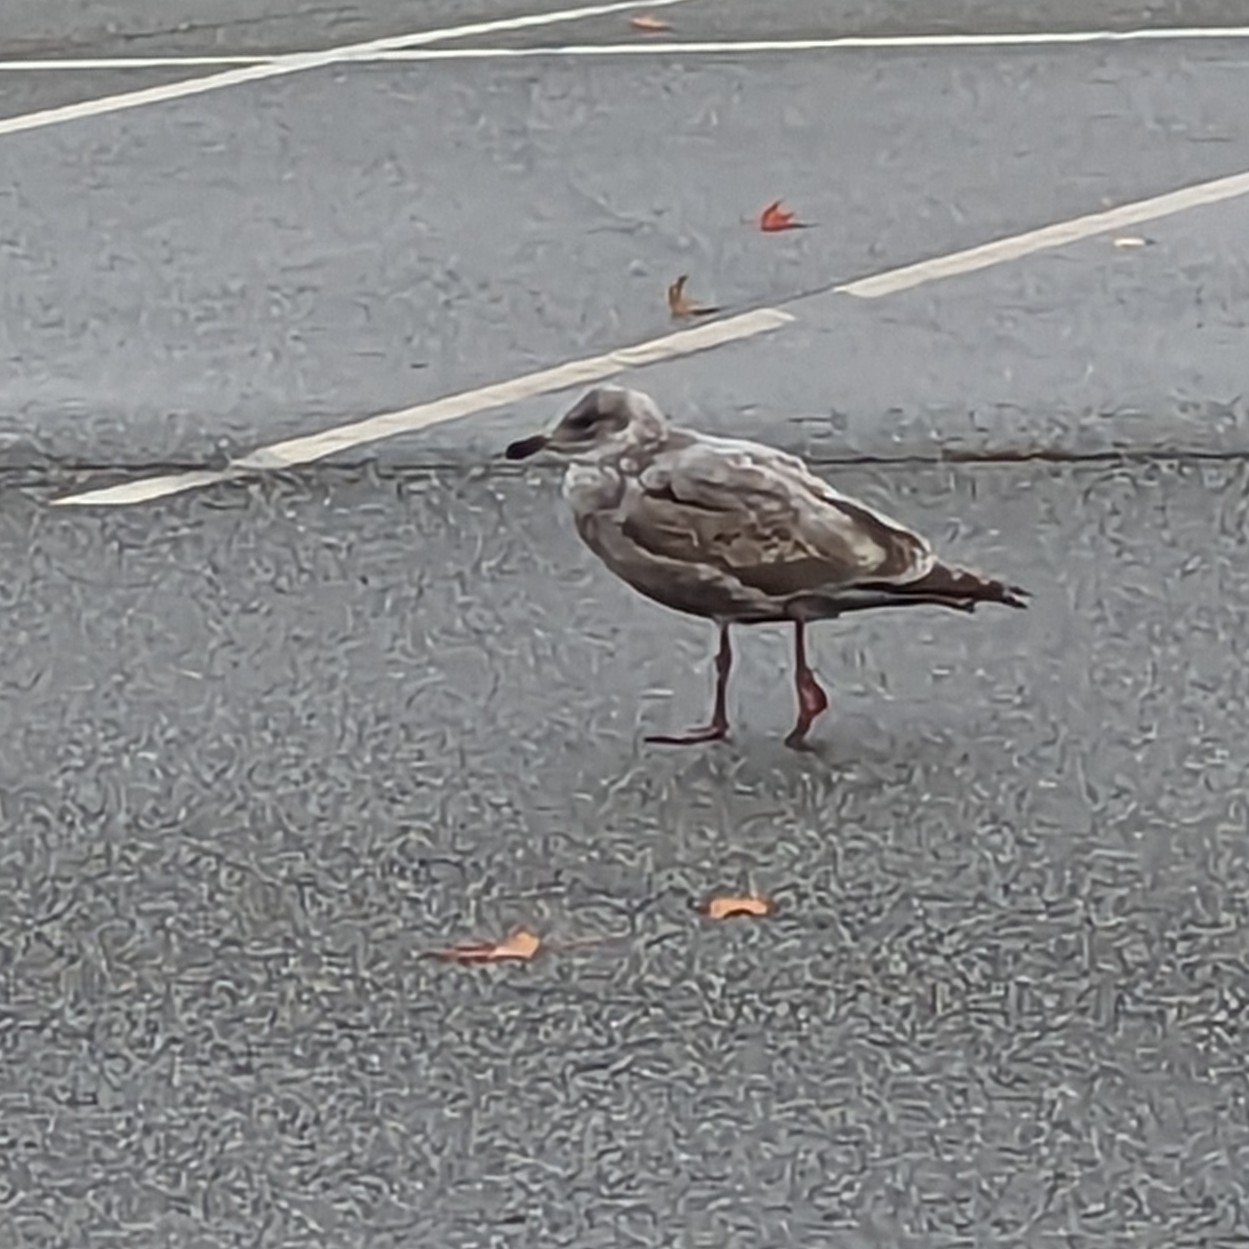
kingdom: Animalia
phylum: Chordata
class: Aves
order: Charadriiformes
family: Laridae
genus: Larus
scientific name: Larus
